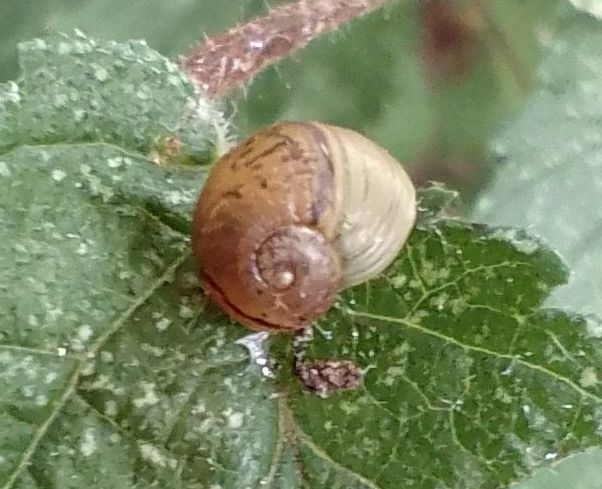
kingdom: Animalia
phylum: Mollusca
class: Gastropoda
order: Stylommatophora
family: Helicidae
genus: Cornu
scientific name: Cornu aspersum
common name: Brown garden snail
